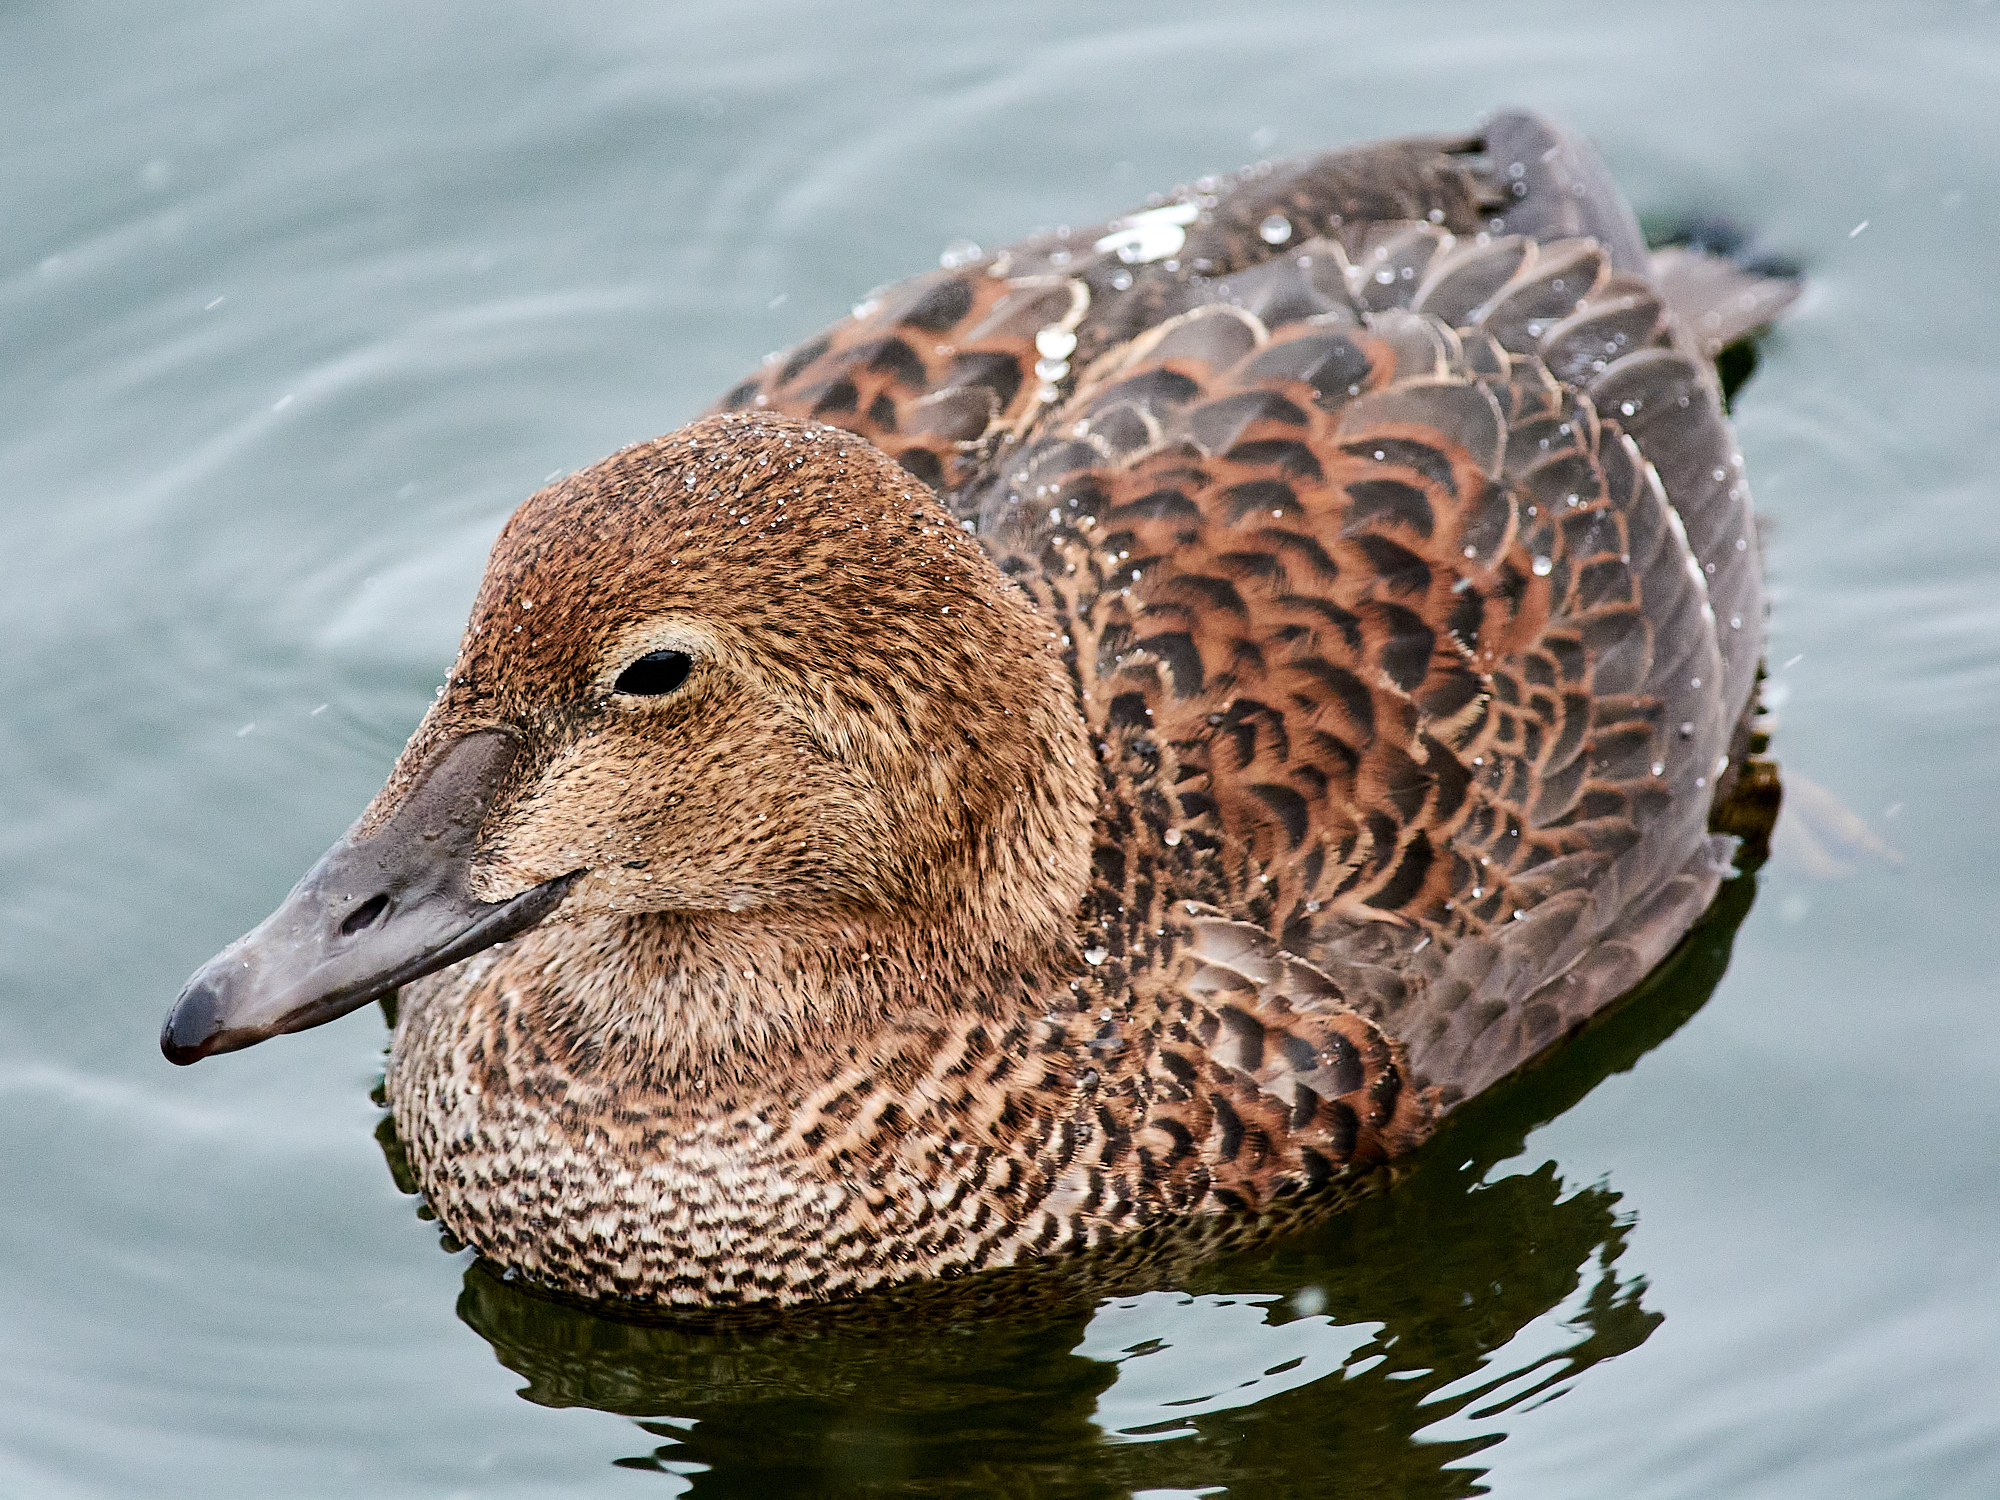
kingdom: Animalia
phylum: Chordata
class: Aves
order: Anseriformes
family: Anatidae
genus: Somateria
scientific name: Somateria spectabilis
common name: King eider
